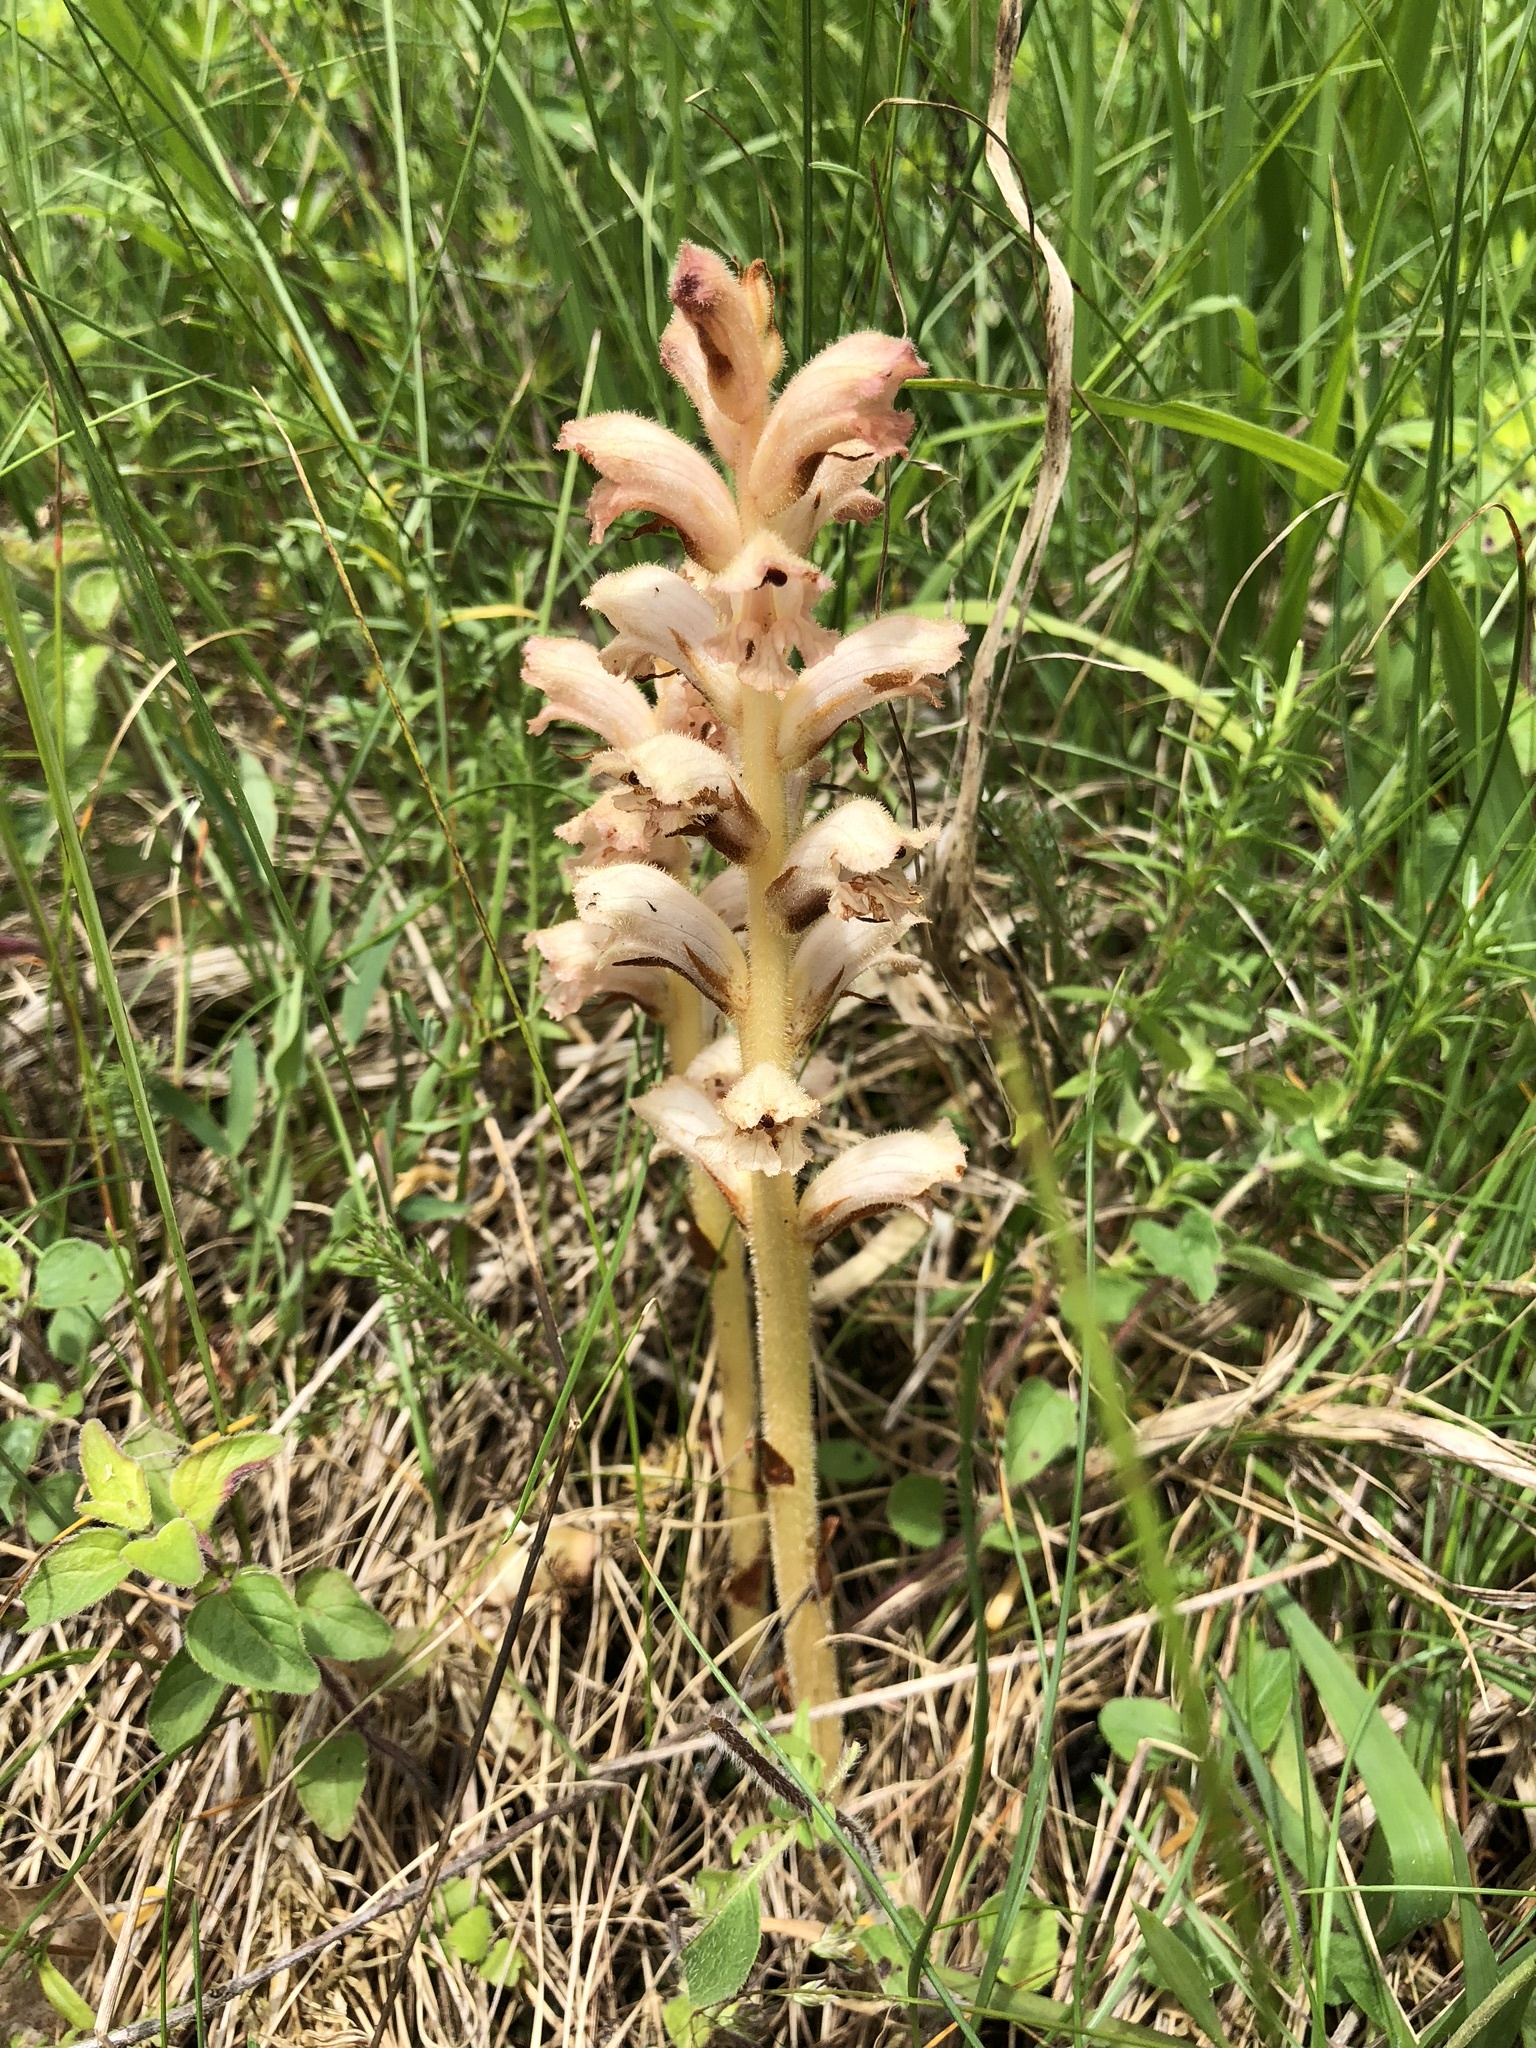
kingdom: Plantae
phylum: Tracheophyta
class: Magnoliopsida
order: Lamiales
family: Orobanchaceae
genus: Orobanche
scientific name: Orobanche caryophyllacea
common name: Bedstraw broomrape
